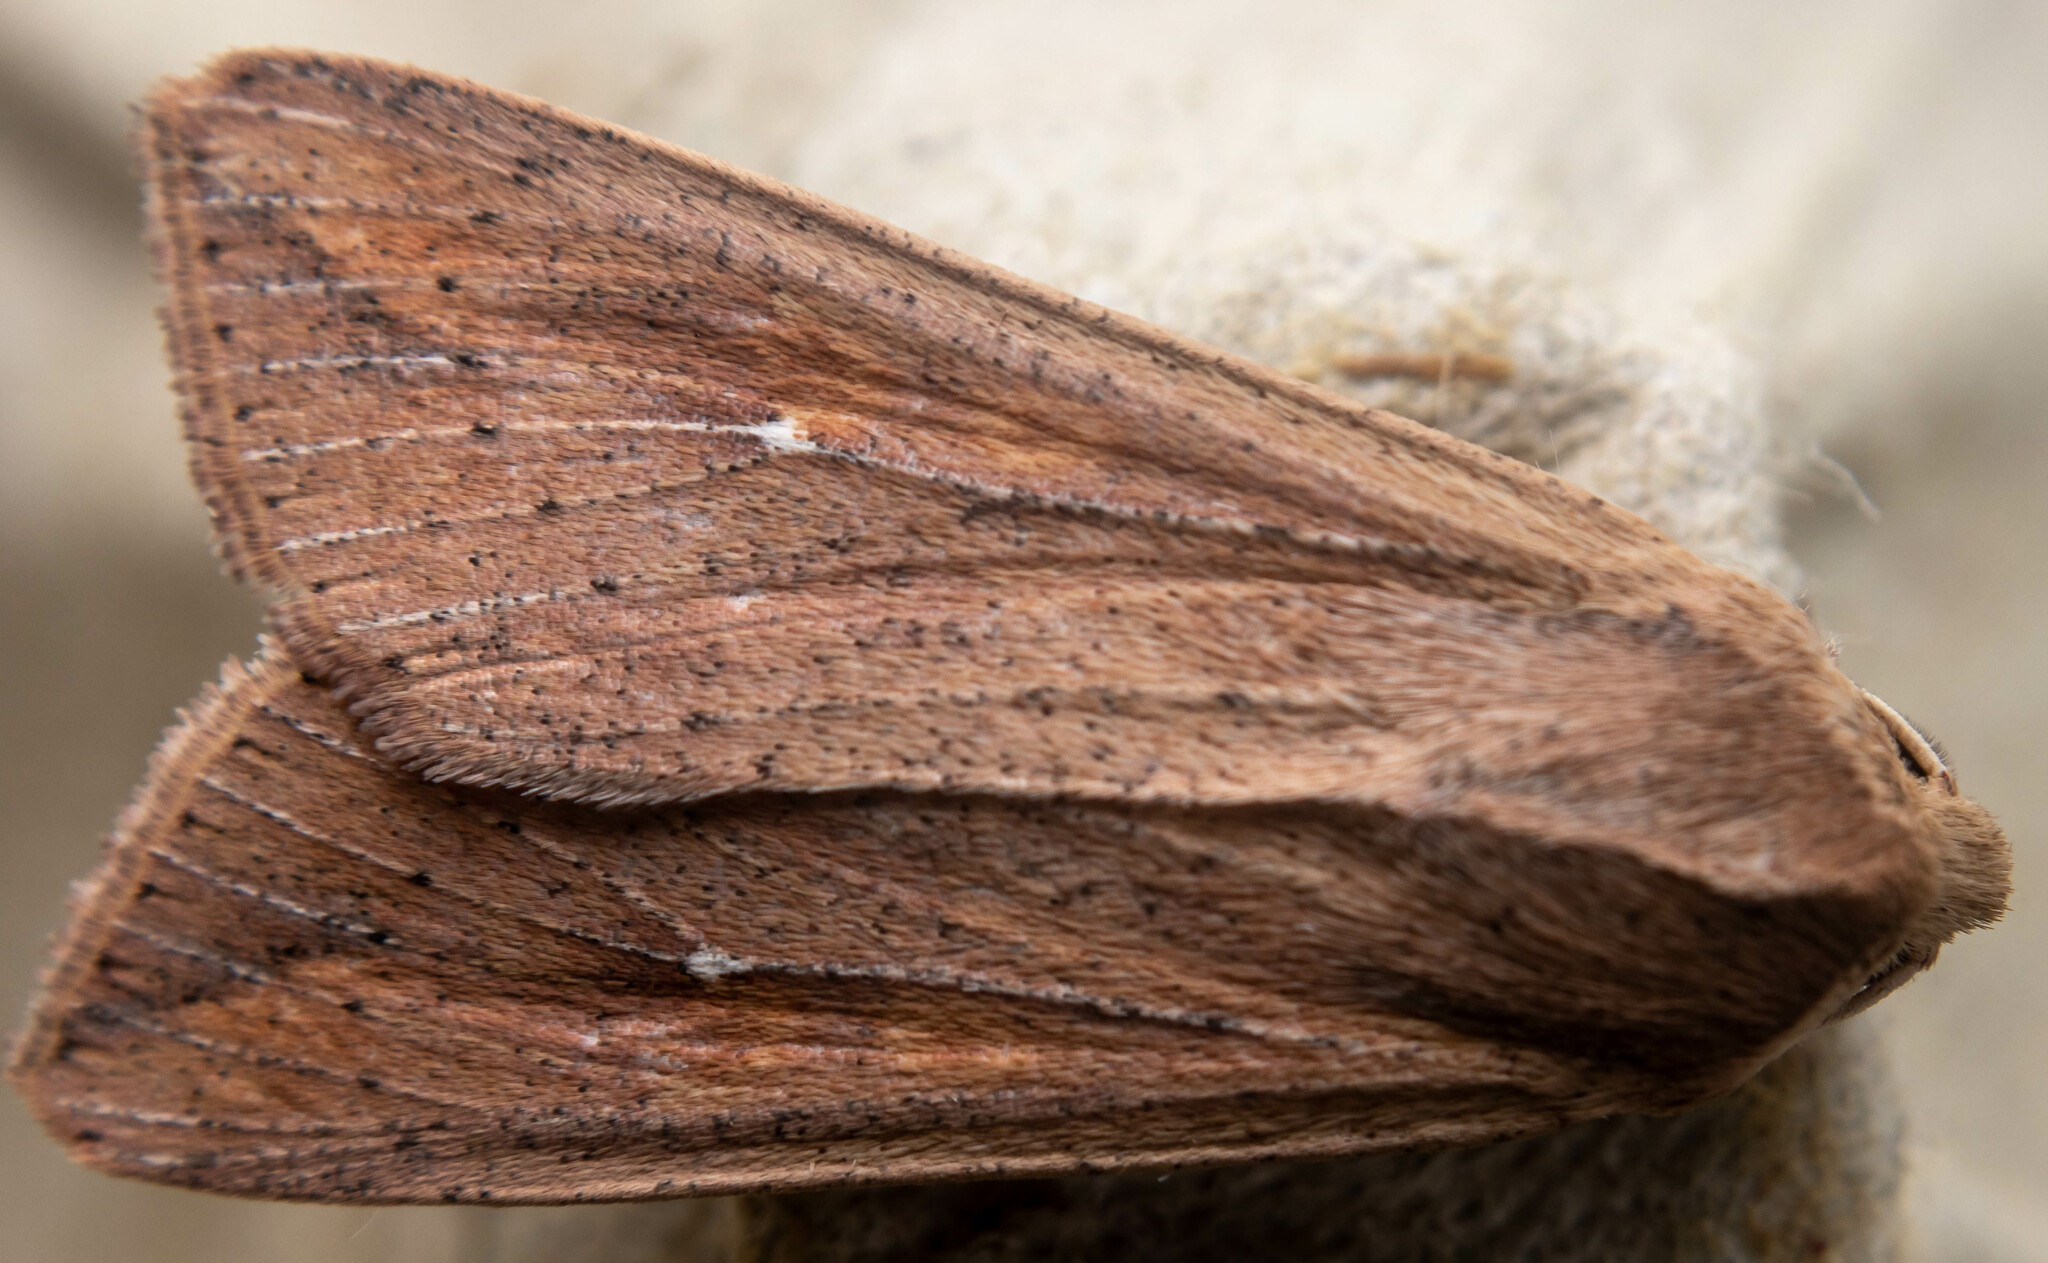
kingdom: Animalia
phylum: Arthropoda
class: Insecta
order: Lepidoptera
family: Noctuidae
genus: Mythimna
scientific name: Mythimna unipuncta
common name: White-speck
